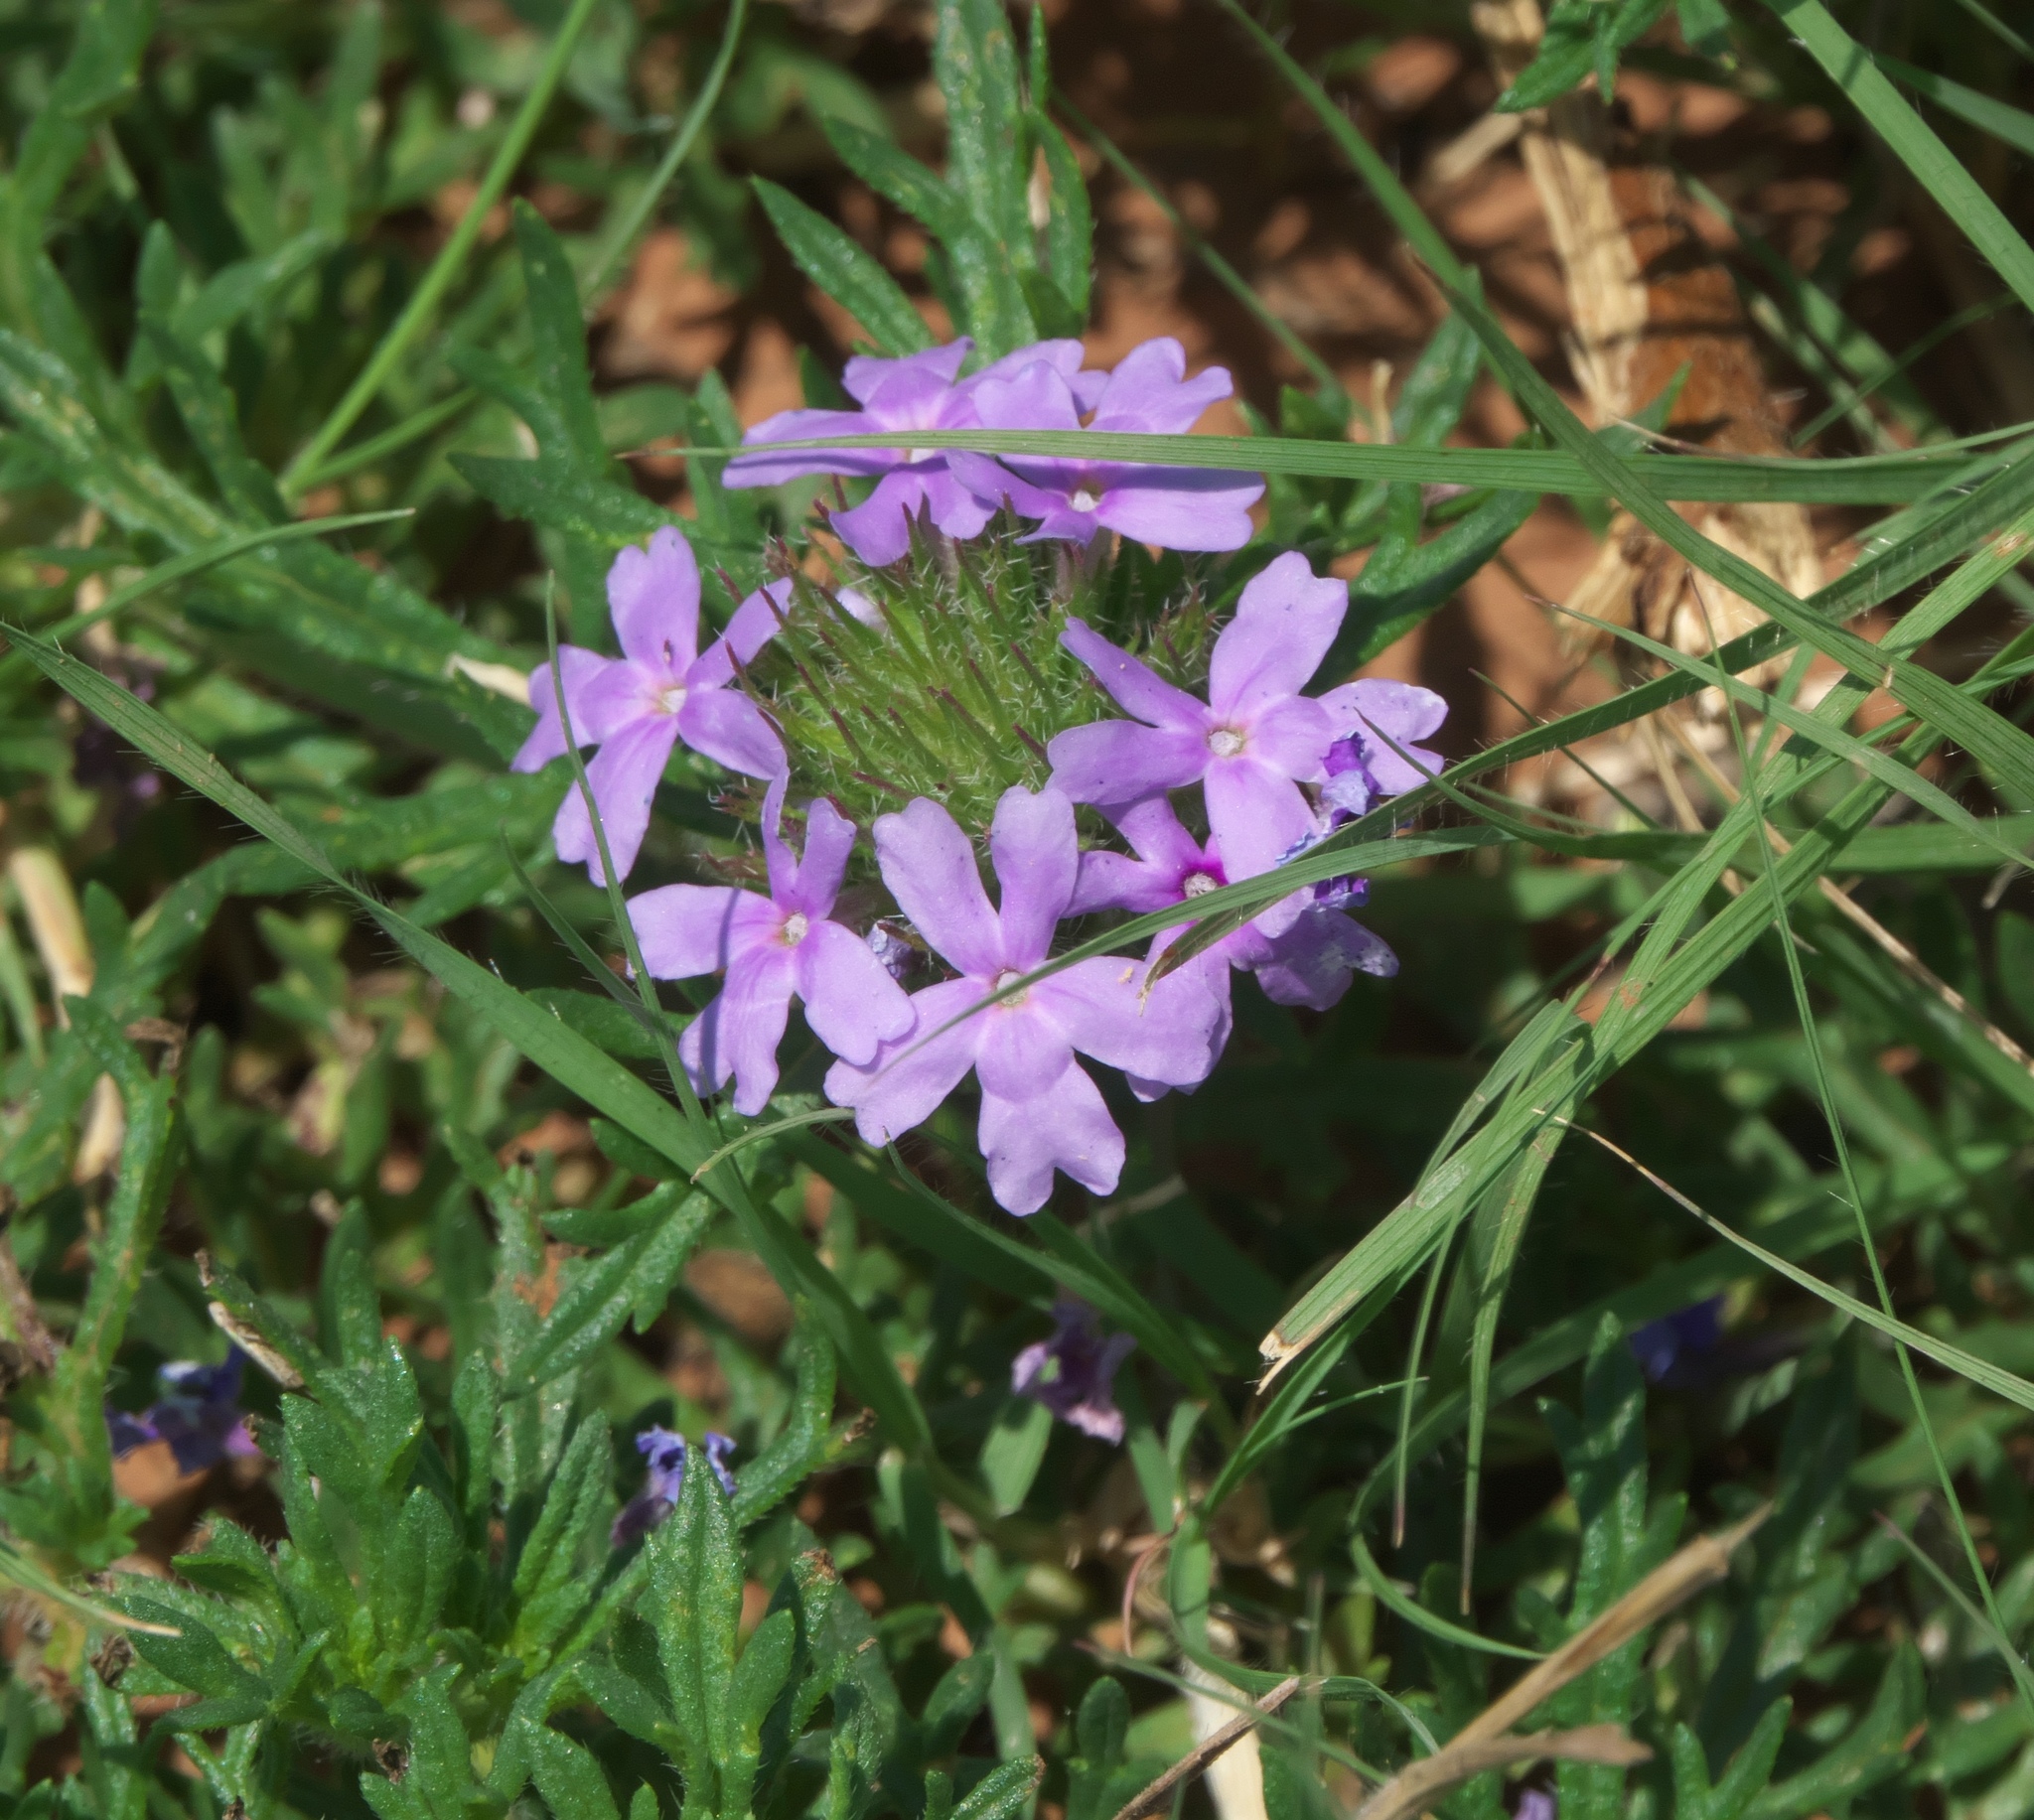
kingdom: Plantae
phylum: Tracheophyta
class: Magnoliopsida
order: Lamiales
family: Verbenaceae
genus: Verbena
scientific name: Verbena bipinnatifida
